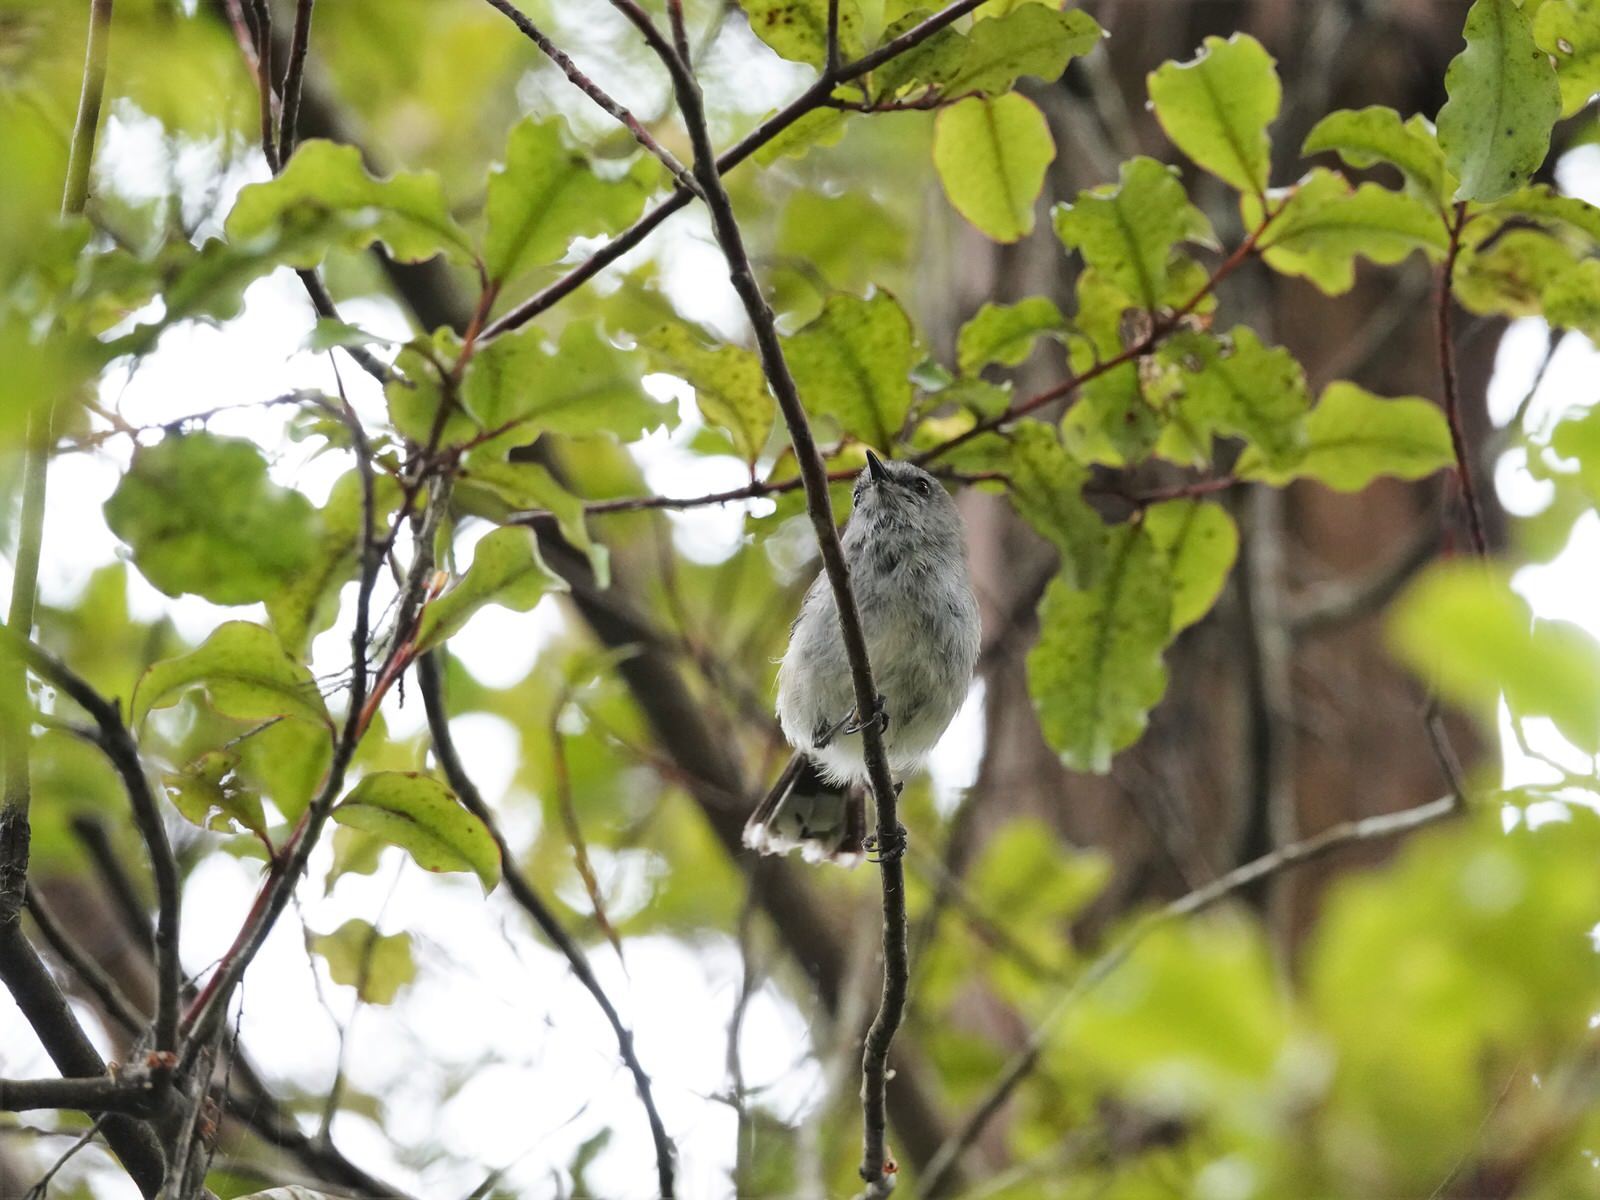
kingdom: Animalia
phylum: Chordata
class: Aves
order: Passeriformes
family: Acanthizidae
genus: Gerygone
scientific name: Gerygone igata
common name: Grey gerygone
